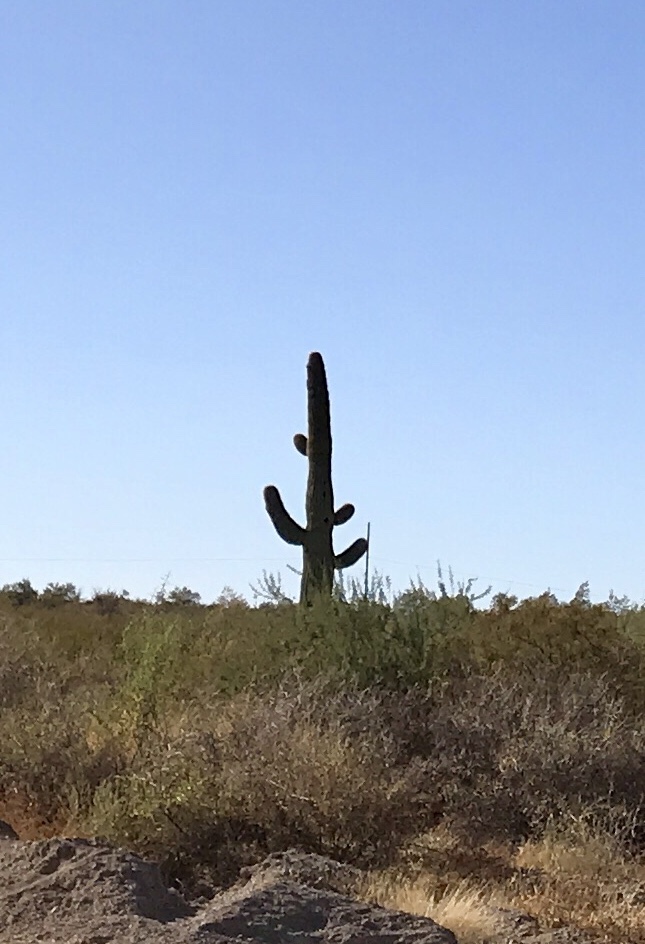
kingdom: Plantae
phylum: Tracheophyta
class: Magnoliopsida
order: Caryophyllales
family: Cactaceae
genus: Carnegiea
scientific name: Carnegiea gigantea
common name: Saguaro
